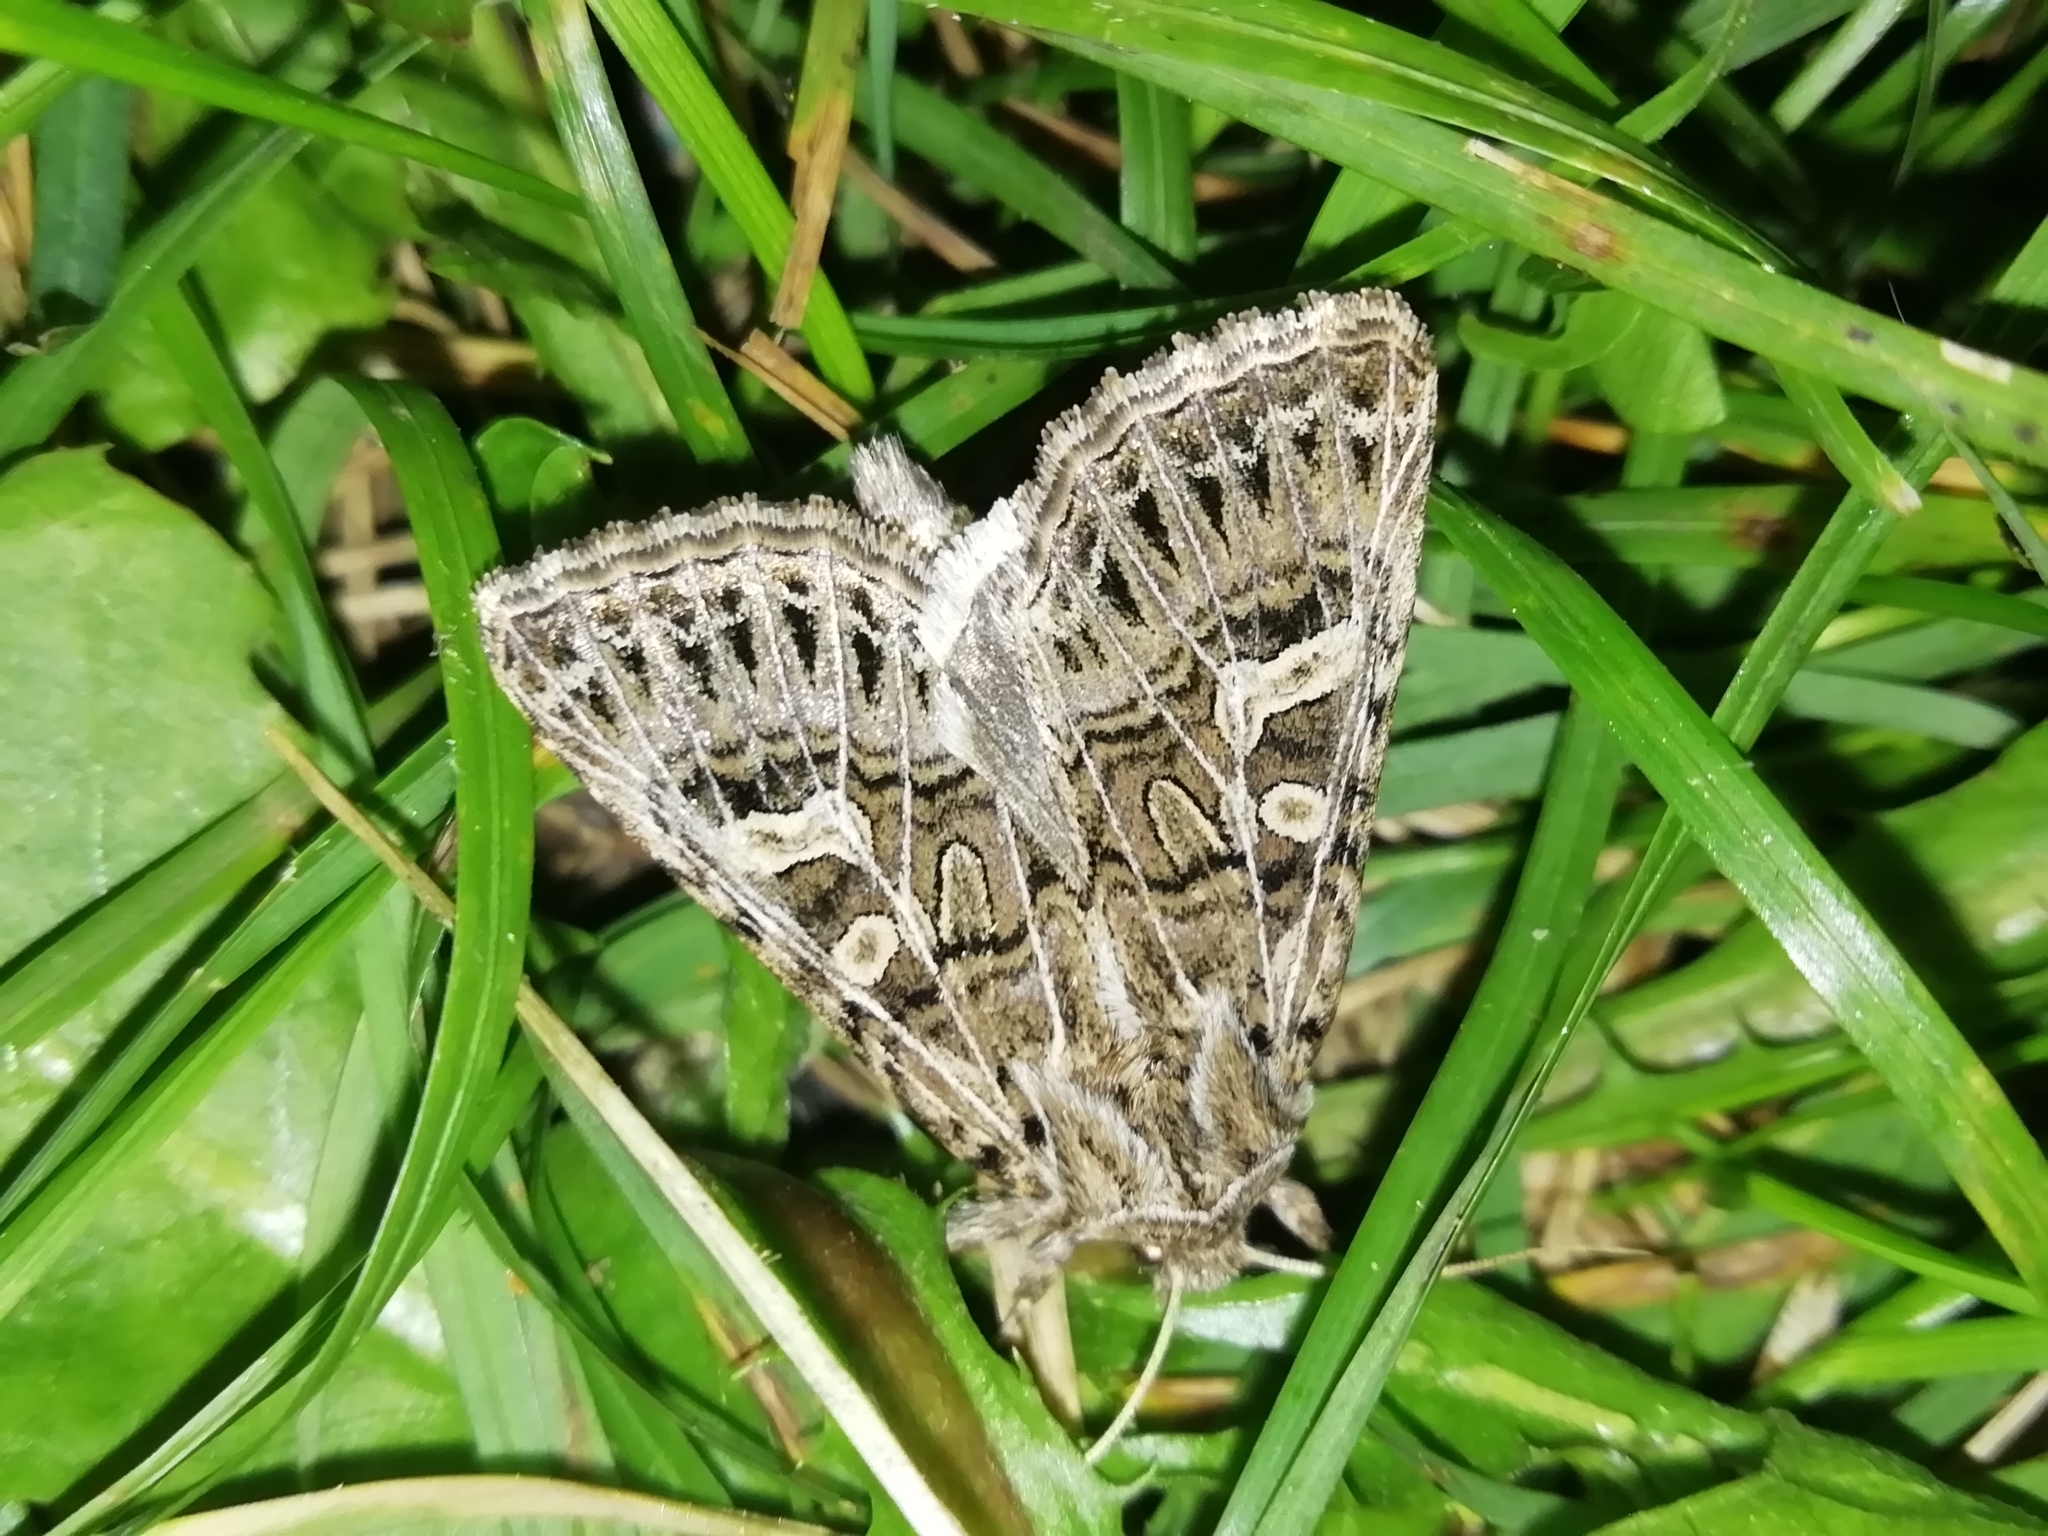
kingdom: Animalia
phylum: Arthropoda
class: Insecta
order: Lepidoptera
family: Noctuidae
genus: Tholera
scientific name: Tholera decimalis
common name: Feathered gothic
